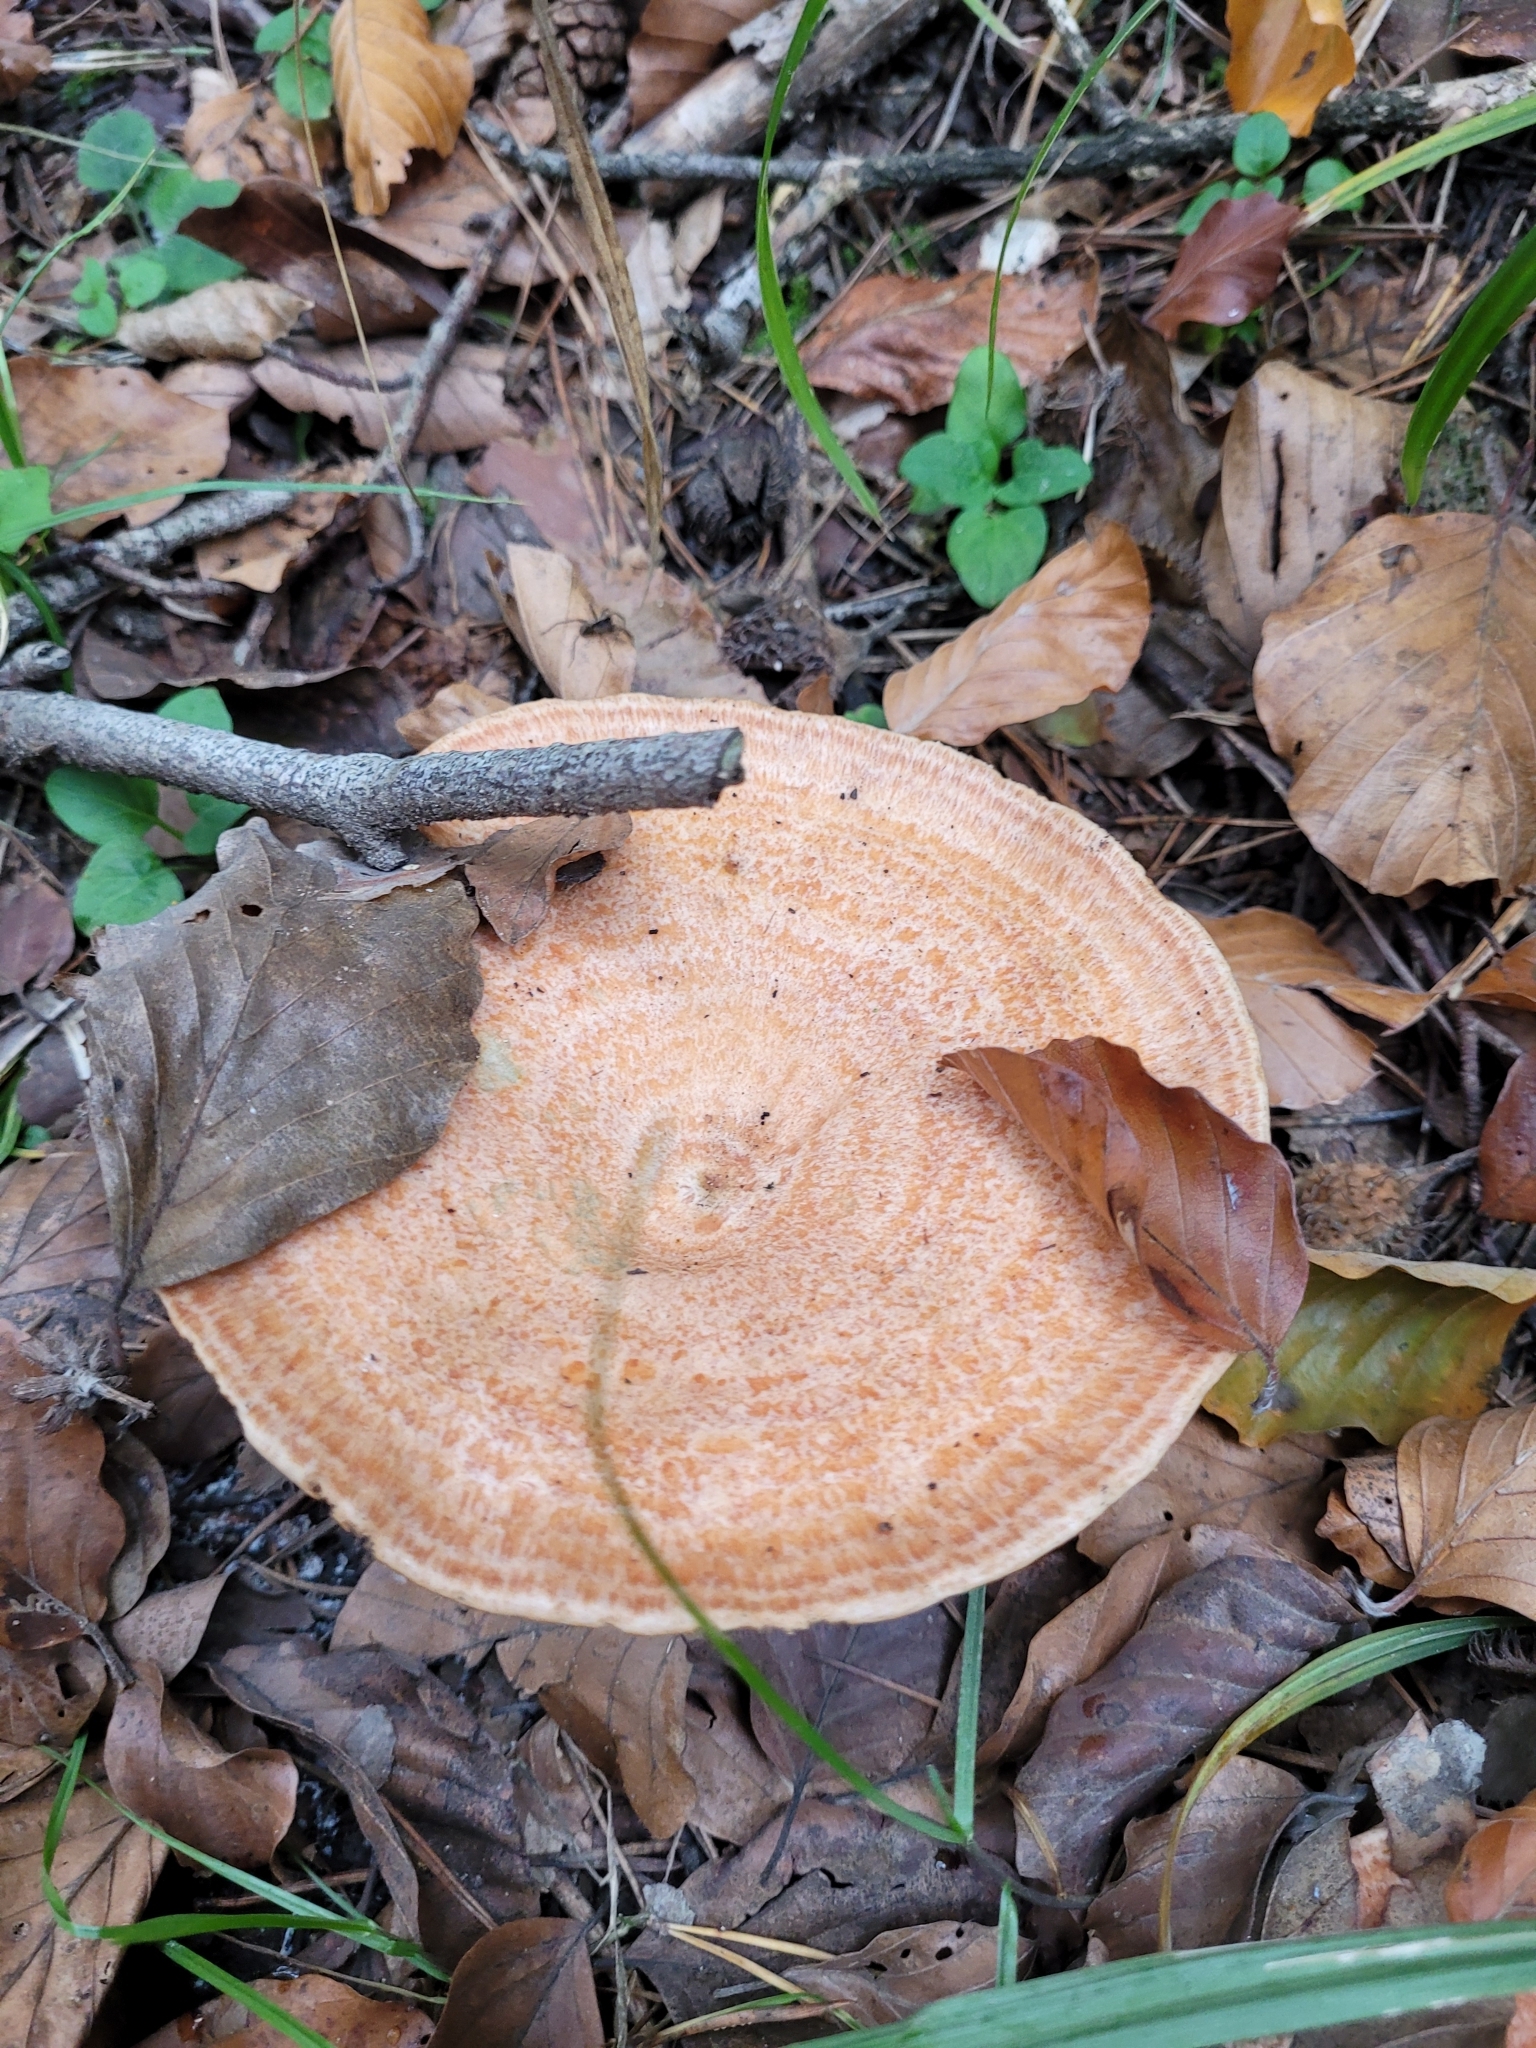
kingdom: Fungi
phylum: Basidiomycota
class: Agaricomycetes
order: Russulales
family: Russulaceae
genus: Lactarius
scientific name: Lactarius deliciosus
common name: Saffron milk-cap
